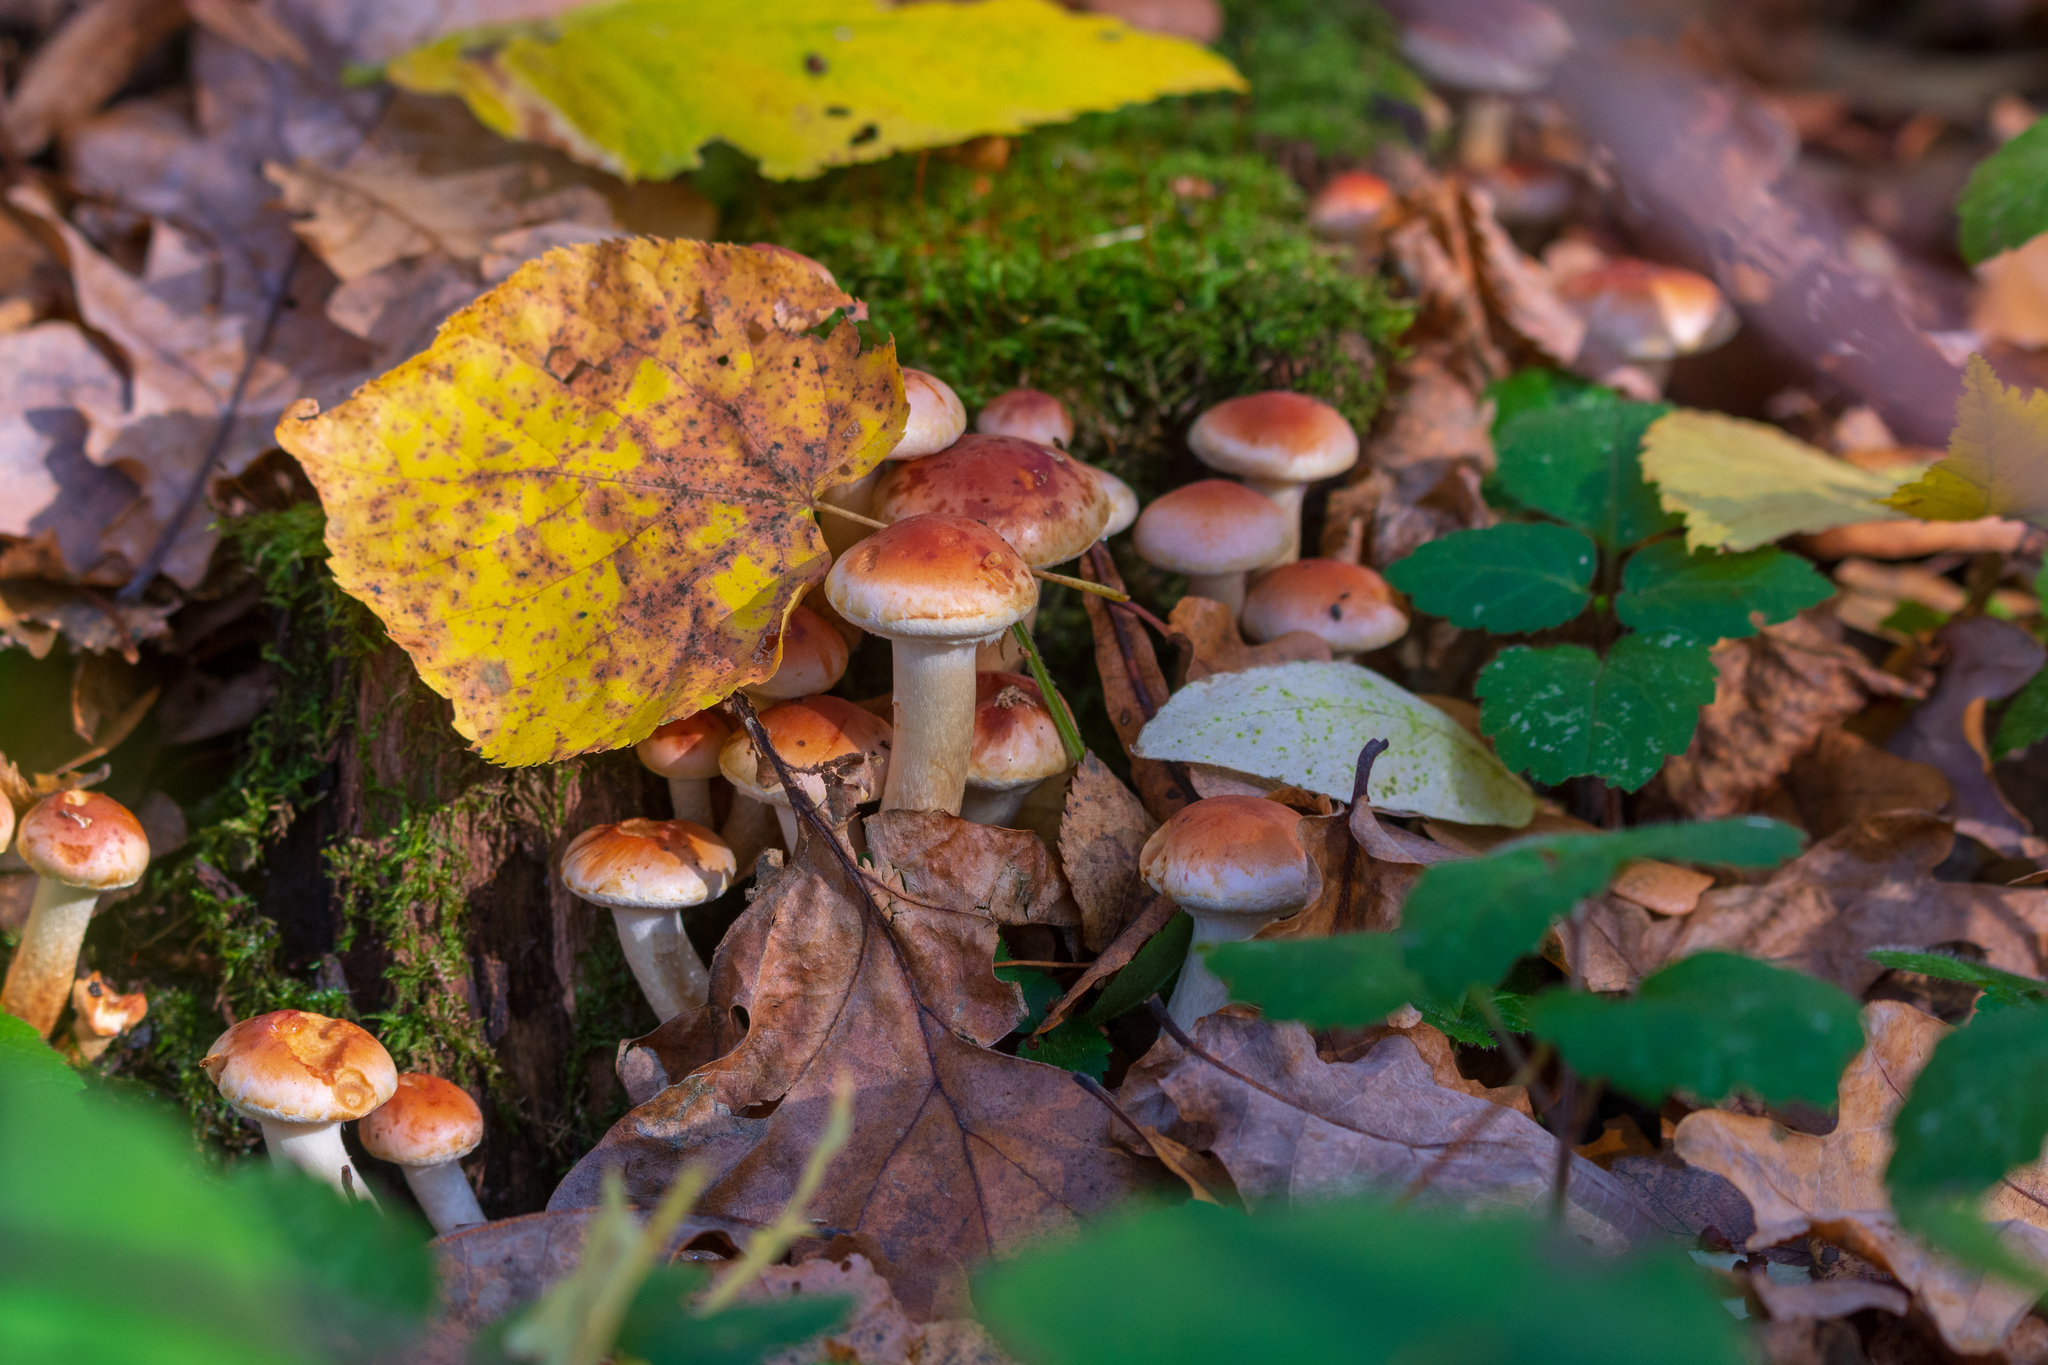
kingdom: Fungi
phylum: Basidiomycota
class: Agaricomycetes
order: Agaricales
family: Strophariaceae
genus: Hypholoma
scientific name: Hypholoma lateritium
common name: Brick caps
